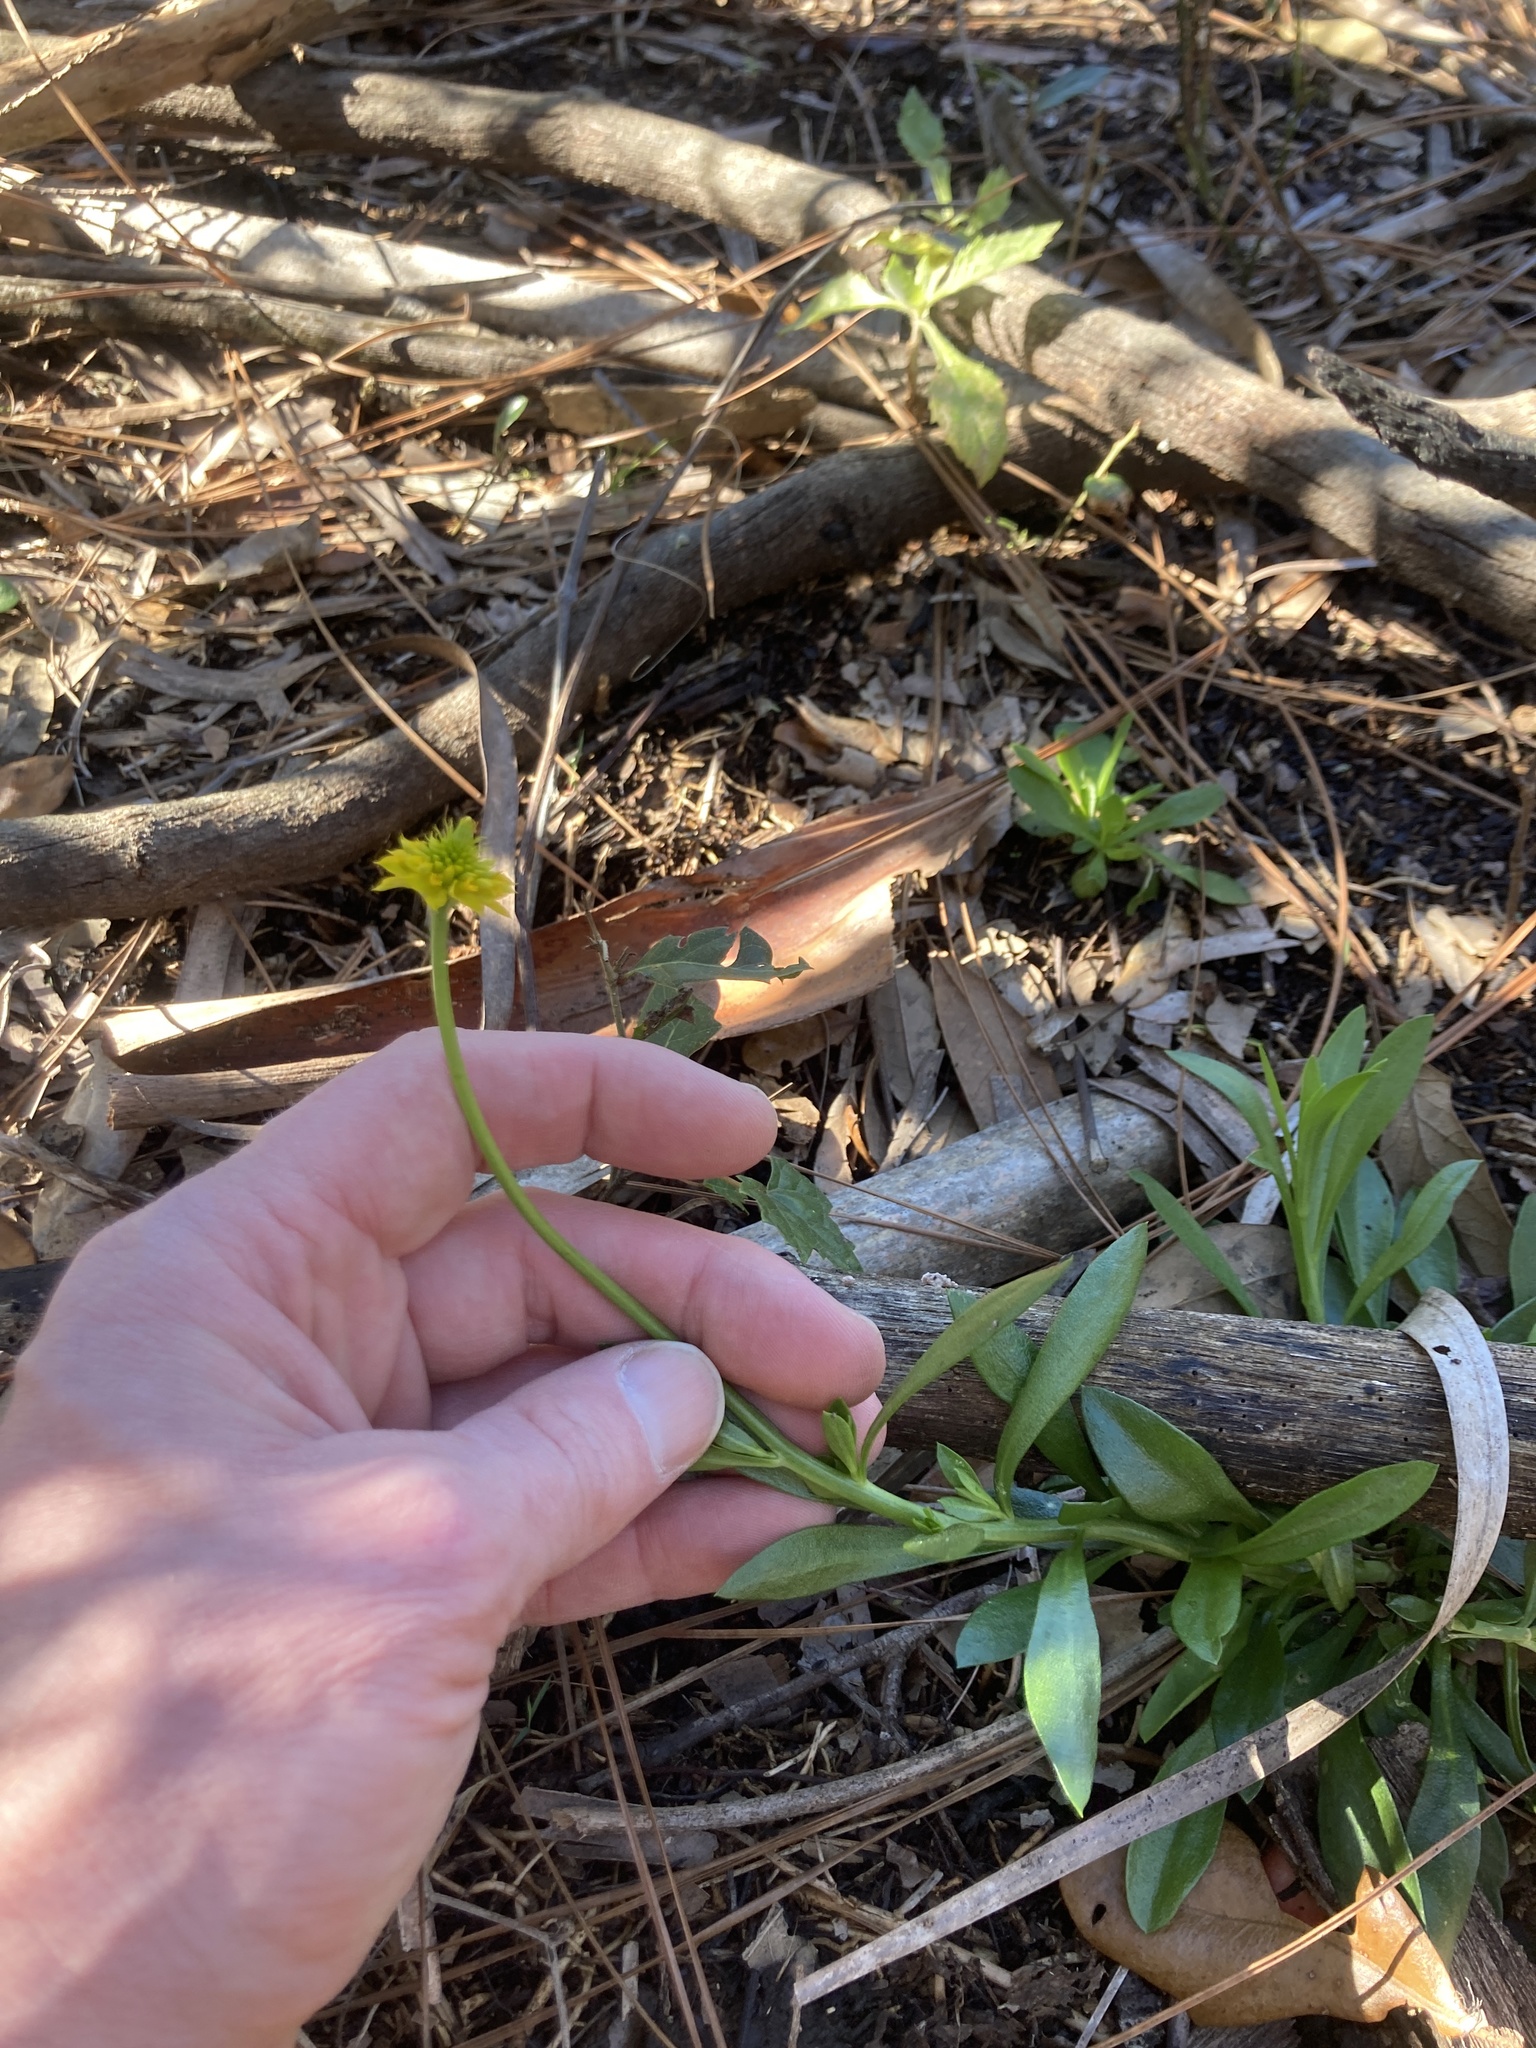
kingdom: Plantae
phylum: Tracheophyta
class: Magnoliopsida
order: Fabales
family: Polygalaceae
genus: Polygala
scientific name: Polygala rugelii
